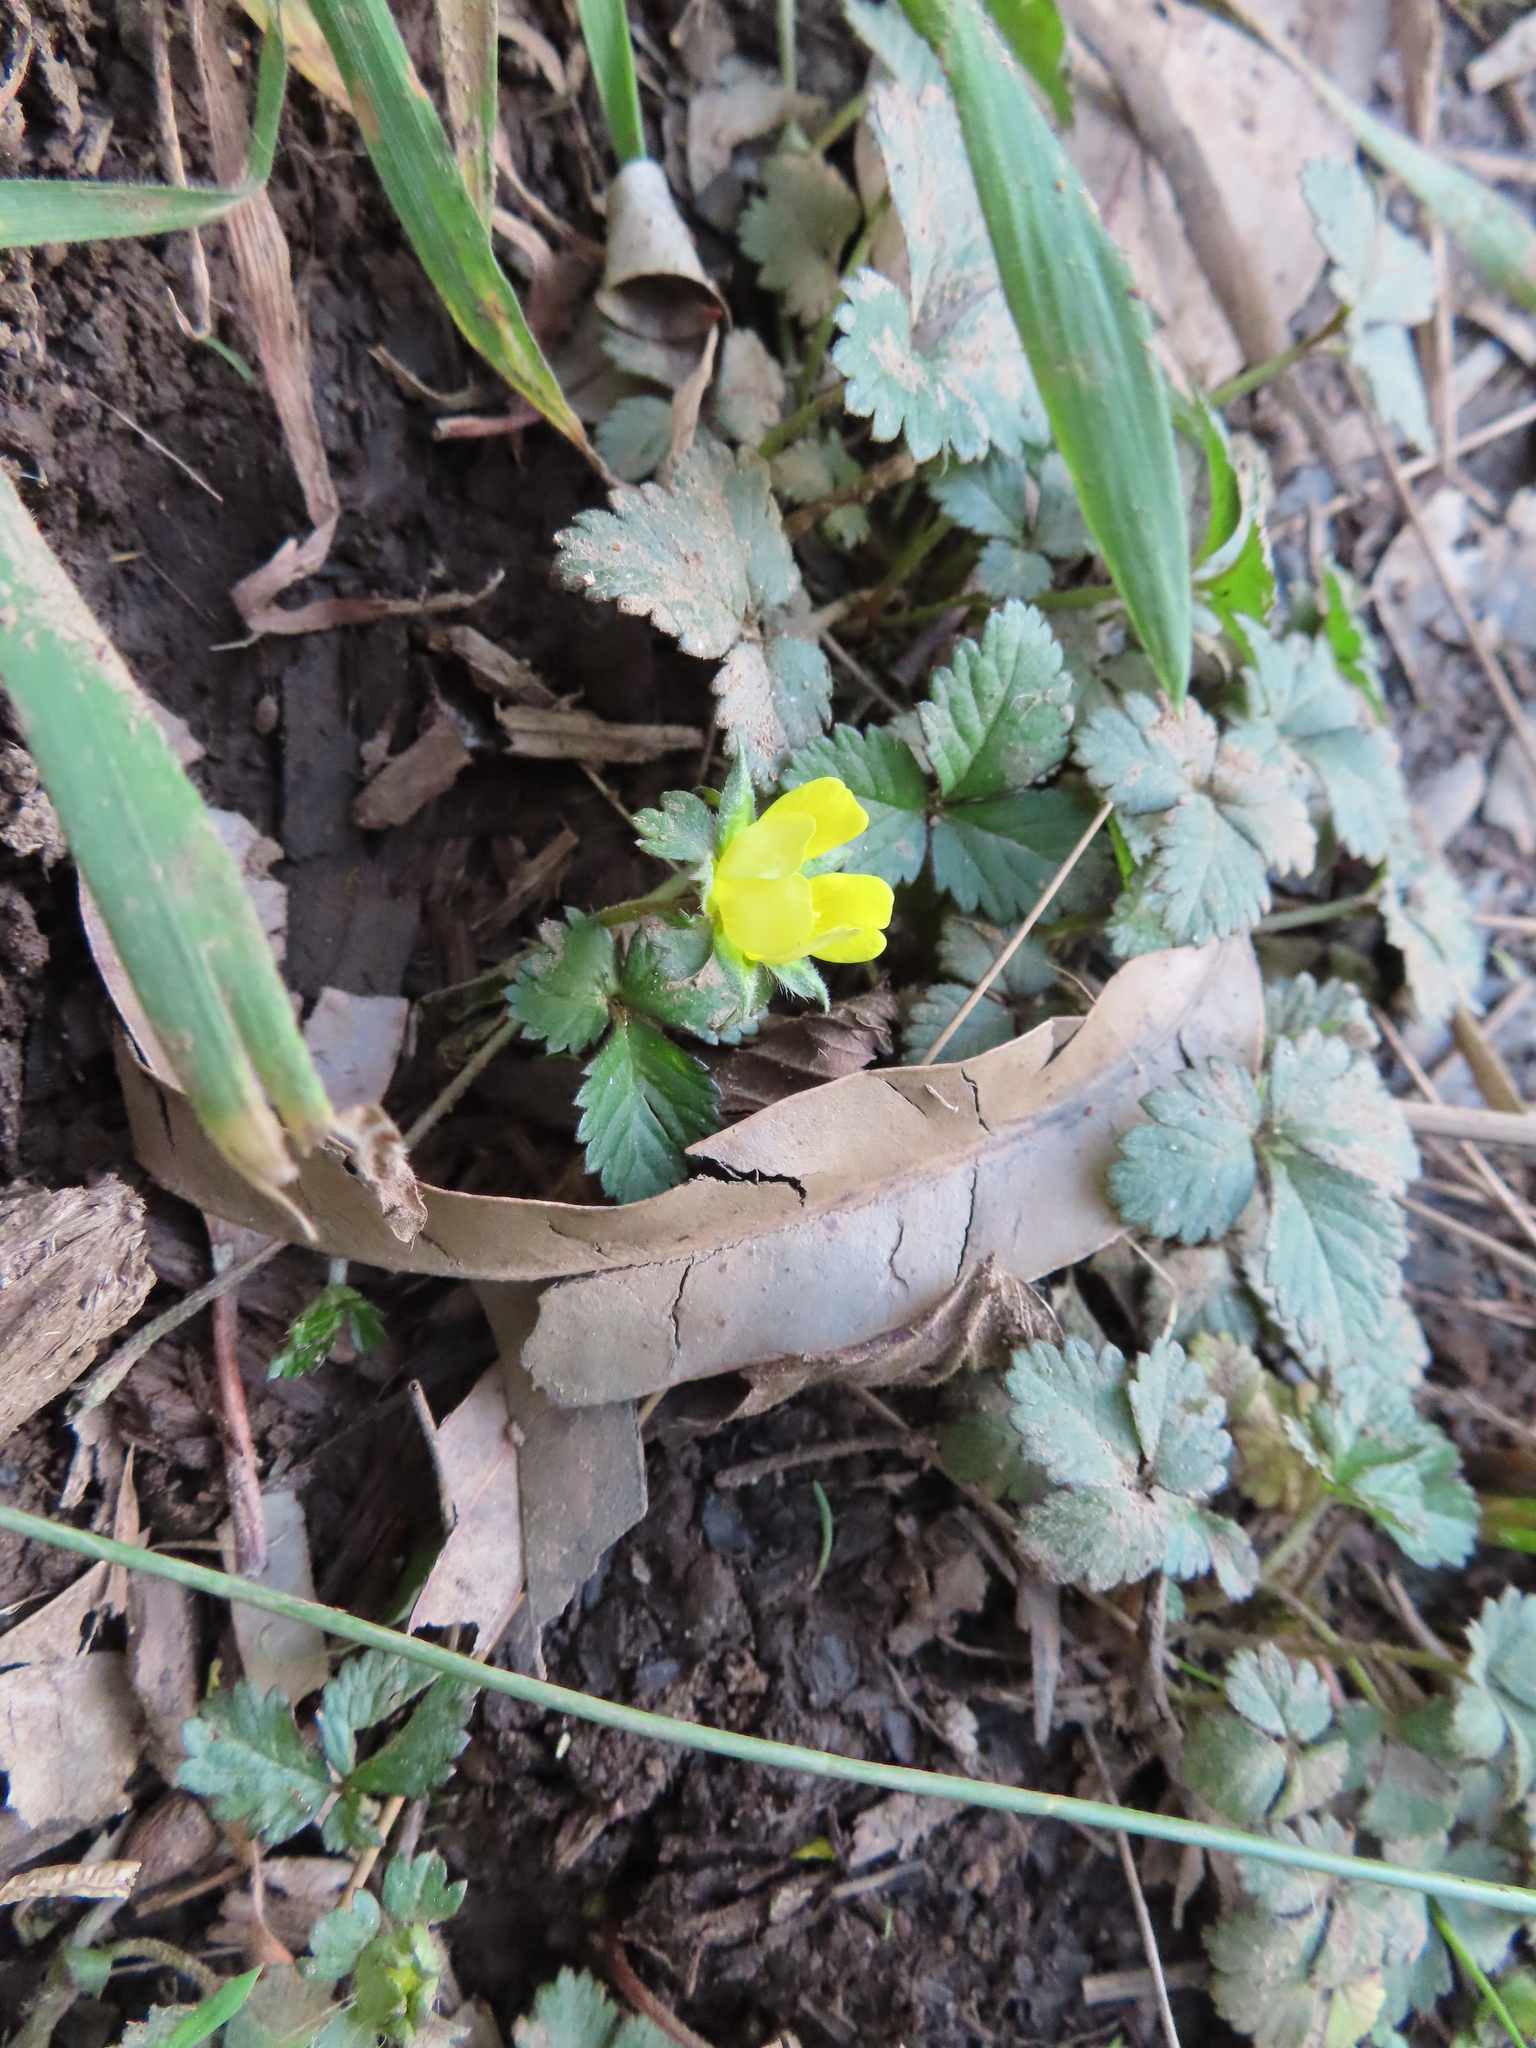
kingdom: Plantae
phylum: Tracheophyta
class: Magnoliopsida
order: Rosales
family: Rosaceae
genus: Potentilla
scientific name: Potentilla indica
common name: Yellow-flowered strawberry
